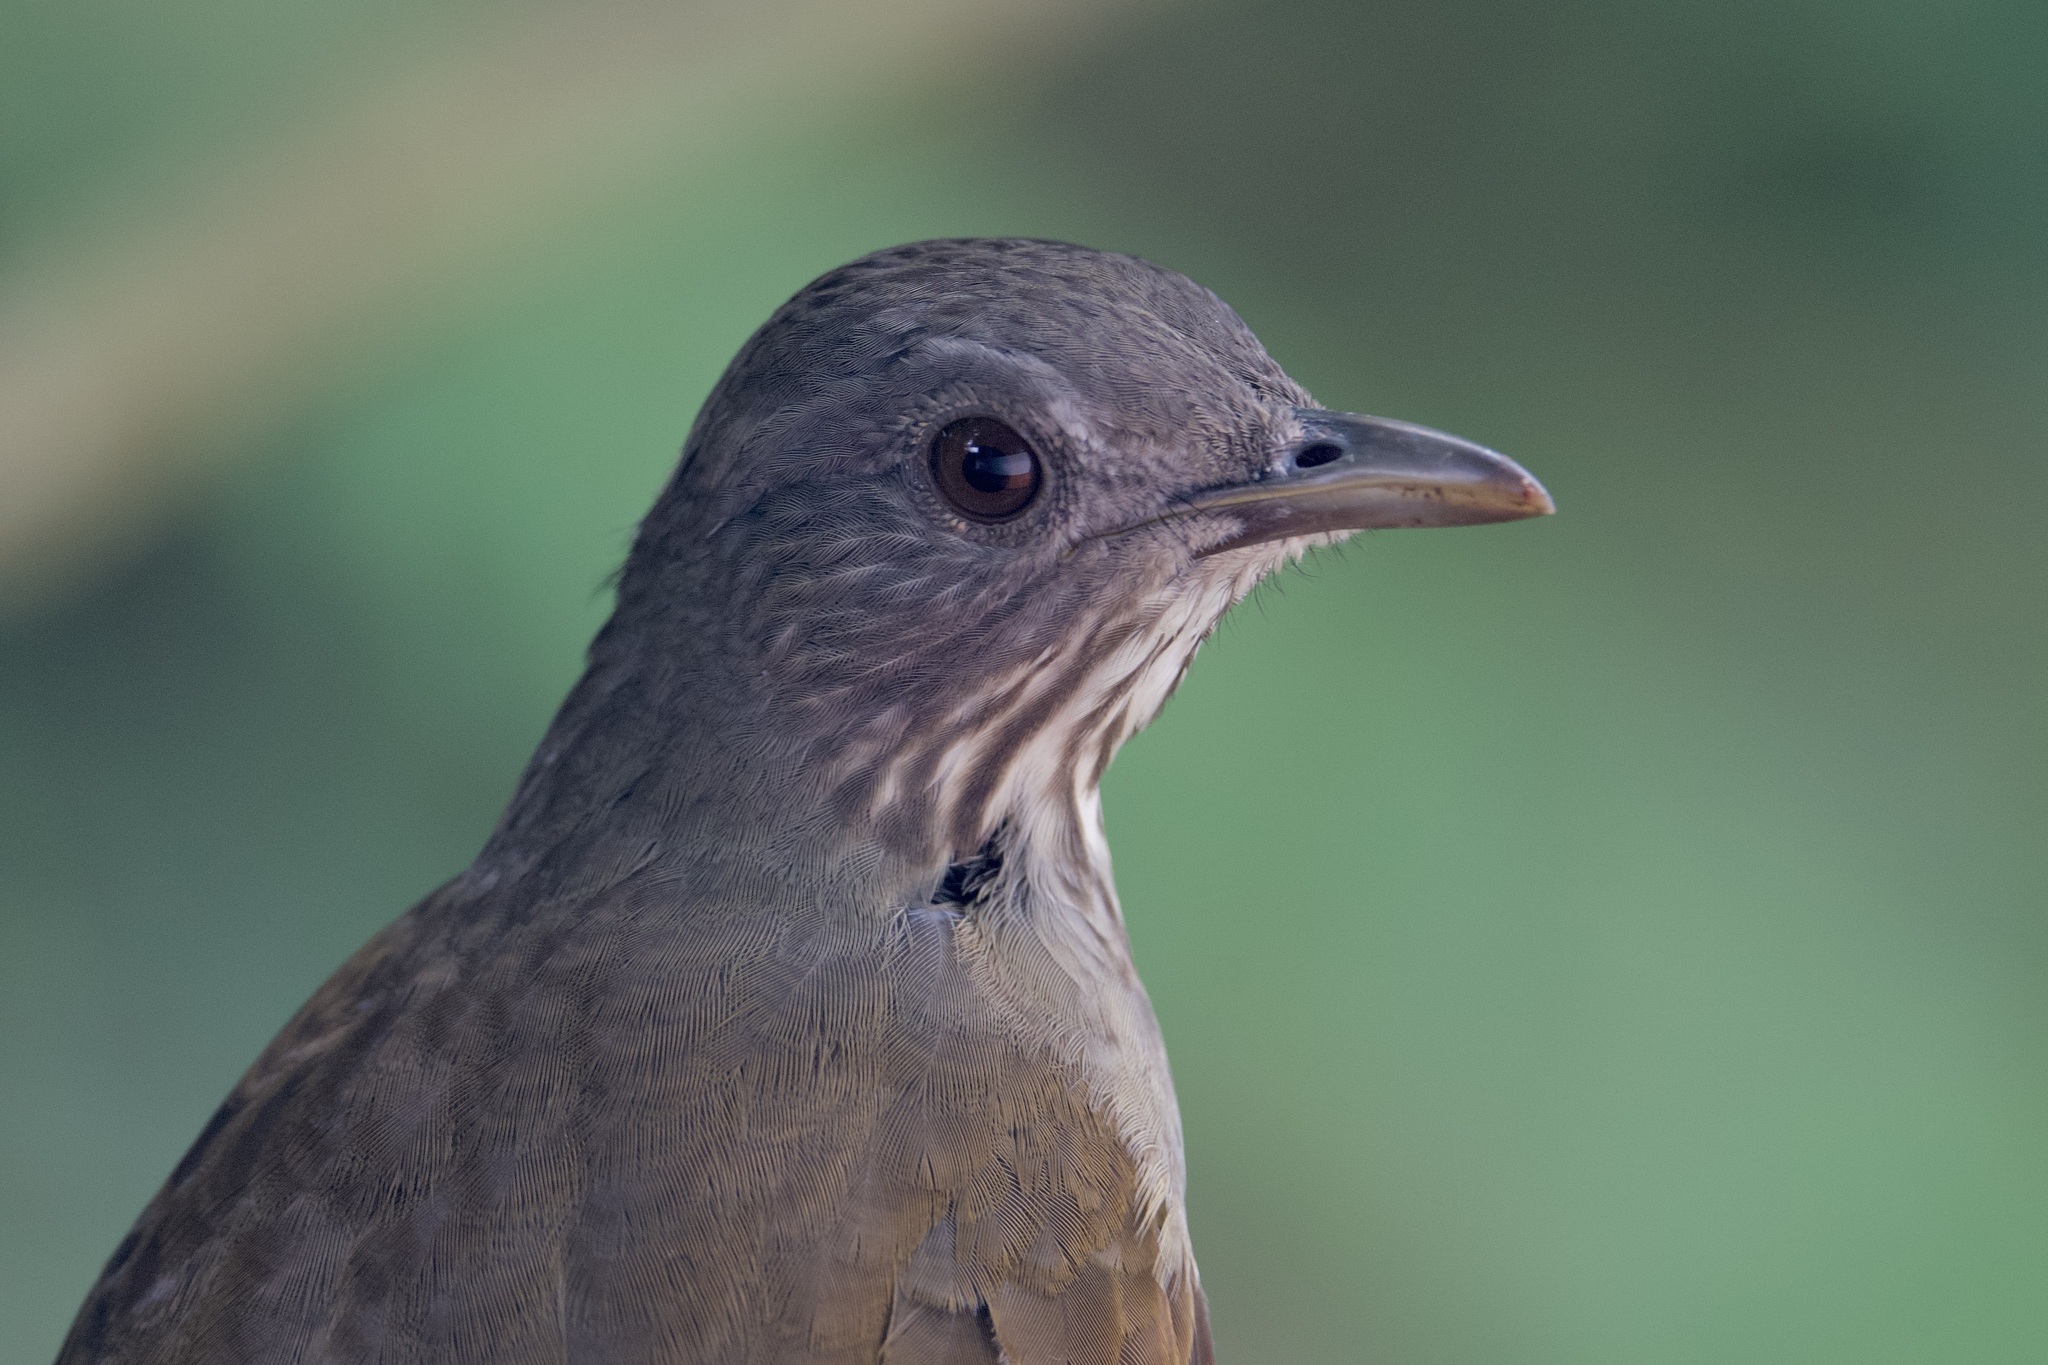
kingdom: Animalia
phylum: Chordata
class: Aves
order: Passeriformes
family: Turdidae
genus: Turdus
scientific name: Turdus leucomelas
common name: Pale-breasted thrush
